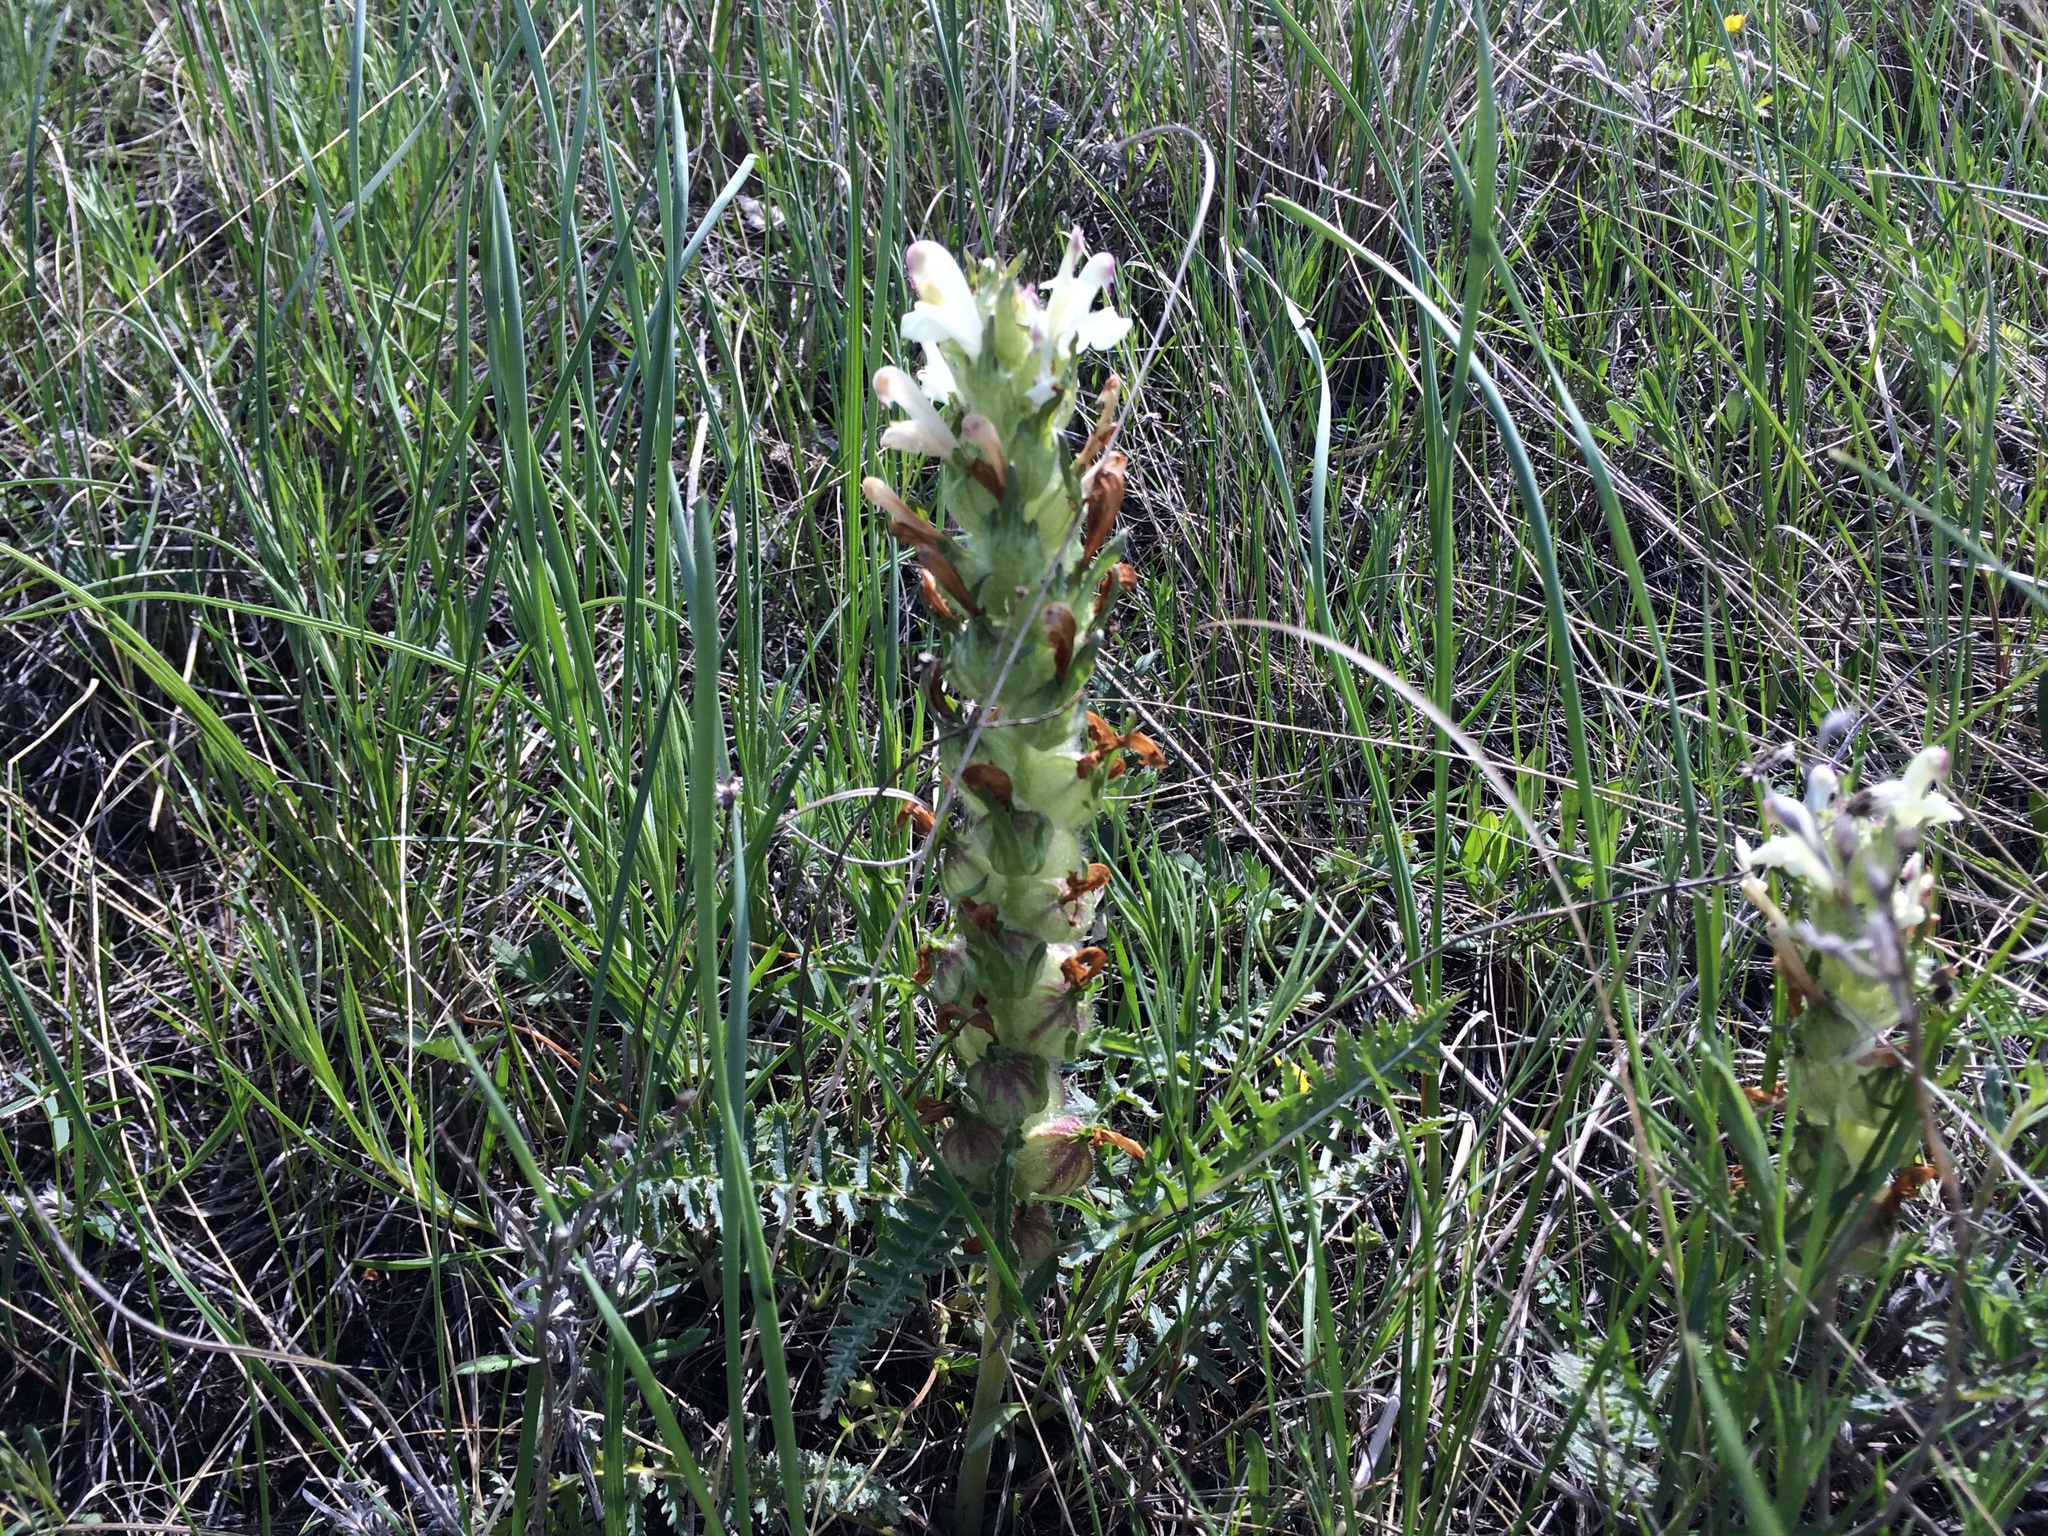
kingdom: Plantae
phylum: Tracheophyta
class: Magnoliopsida
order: Lamiales
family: Orobanchaceae
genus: Pedicularis
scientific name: Pedicularis physocalyx
